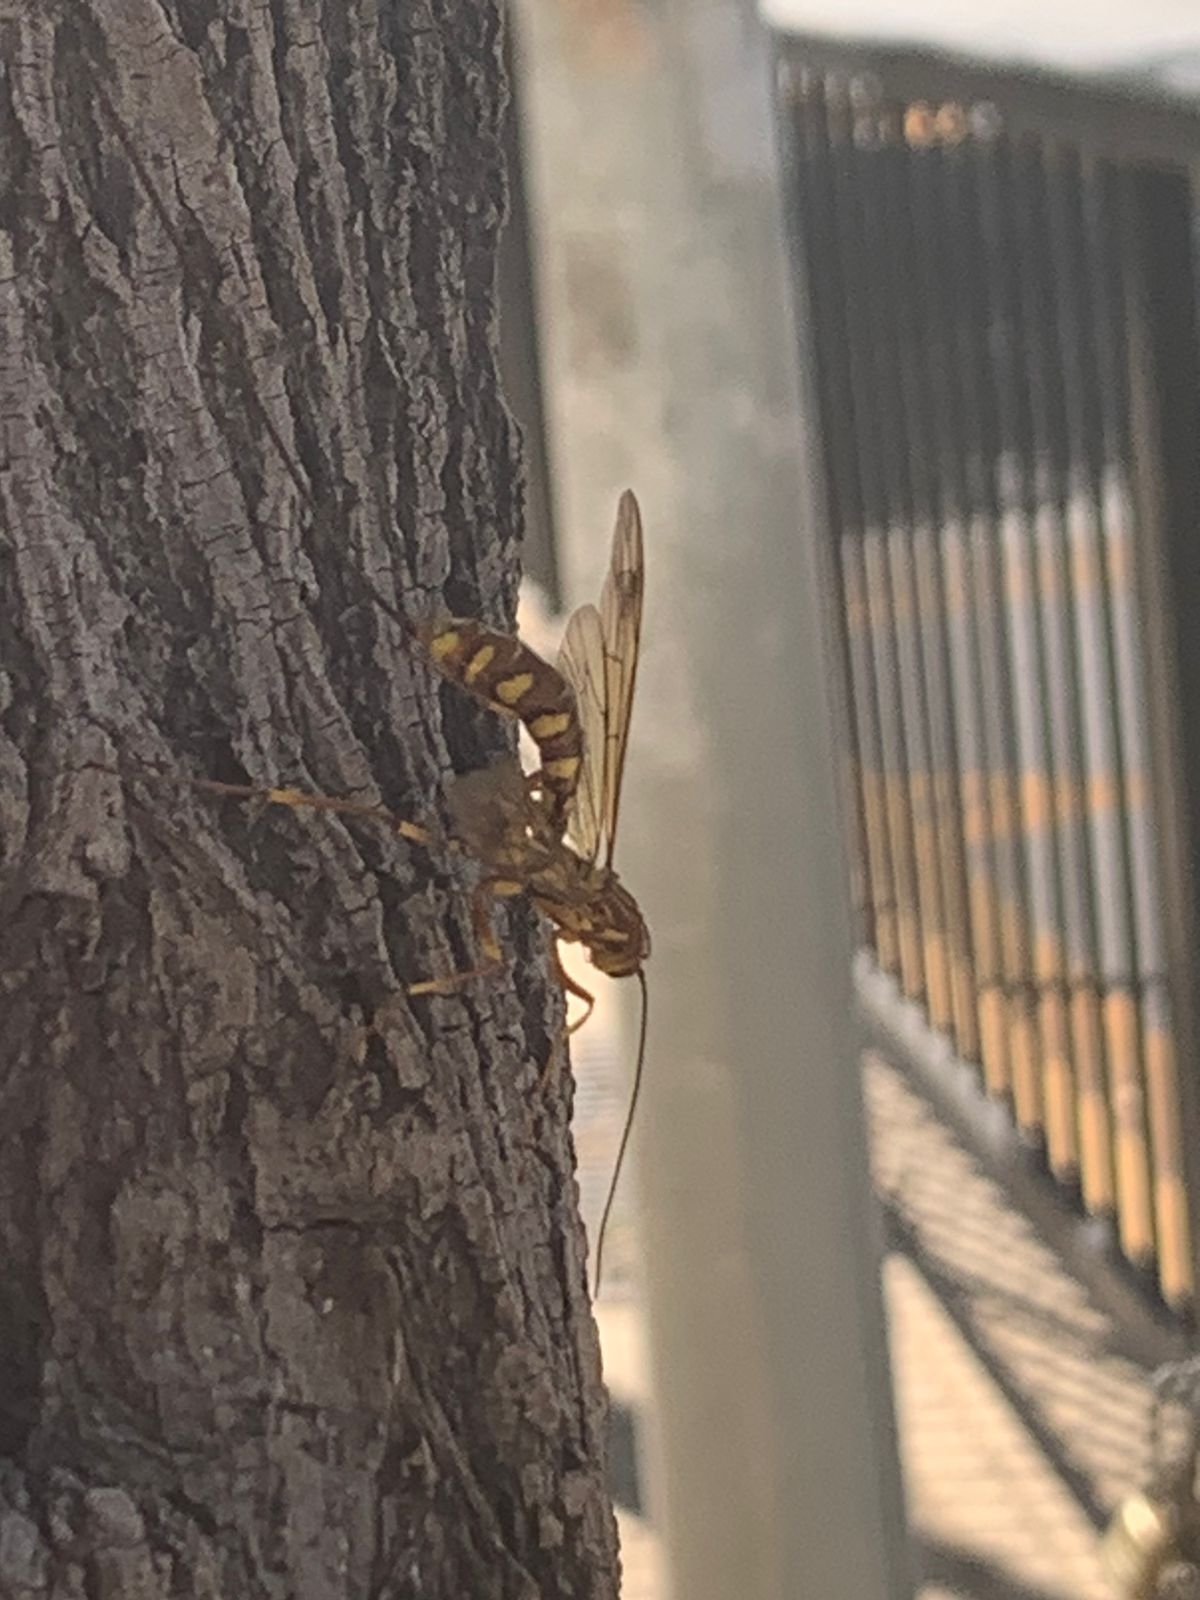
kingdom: Animalia
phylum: Arthropoda
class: Insecta
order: Hymenoptera
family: Ichneumonidae
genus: Megarhyssa
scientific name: Megarhyssa praecellens
